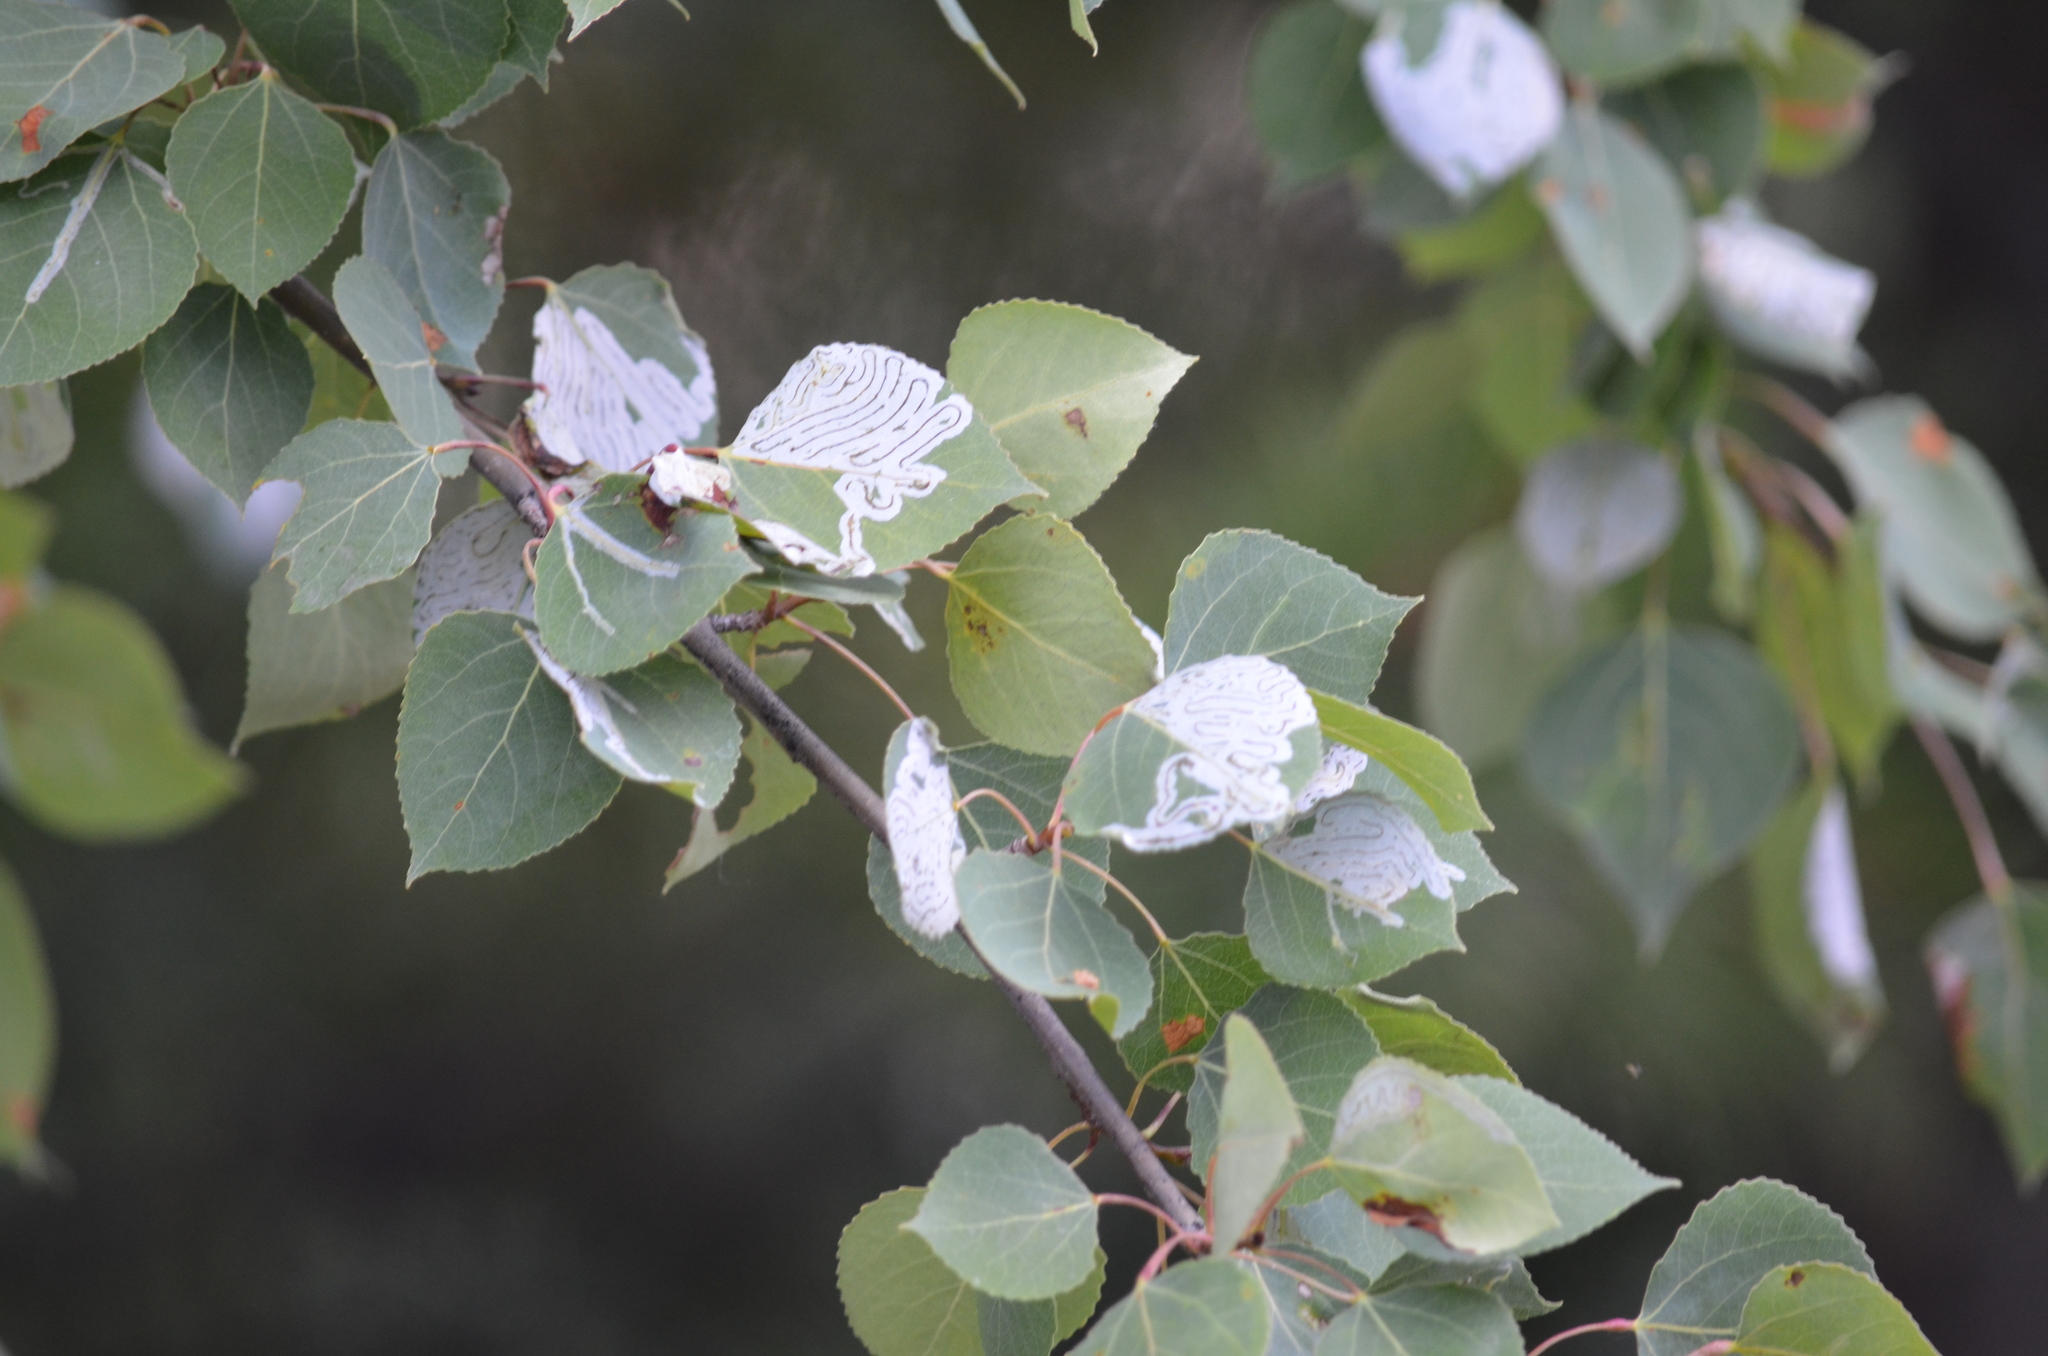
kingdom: Animalia
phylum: Arthropoda
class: Insecta
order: Lepidoptera
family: Gracillariidae
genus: Phyllocnistis
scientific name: Phyllocnistis populiella
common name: Aspen serpentine leafminer moth
